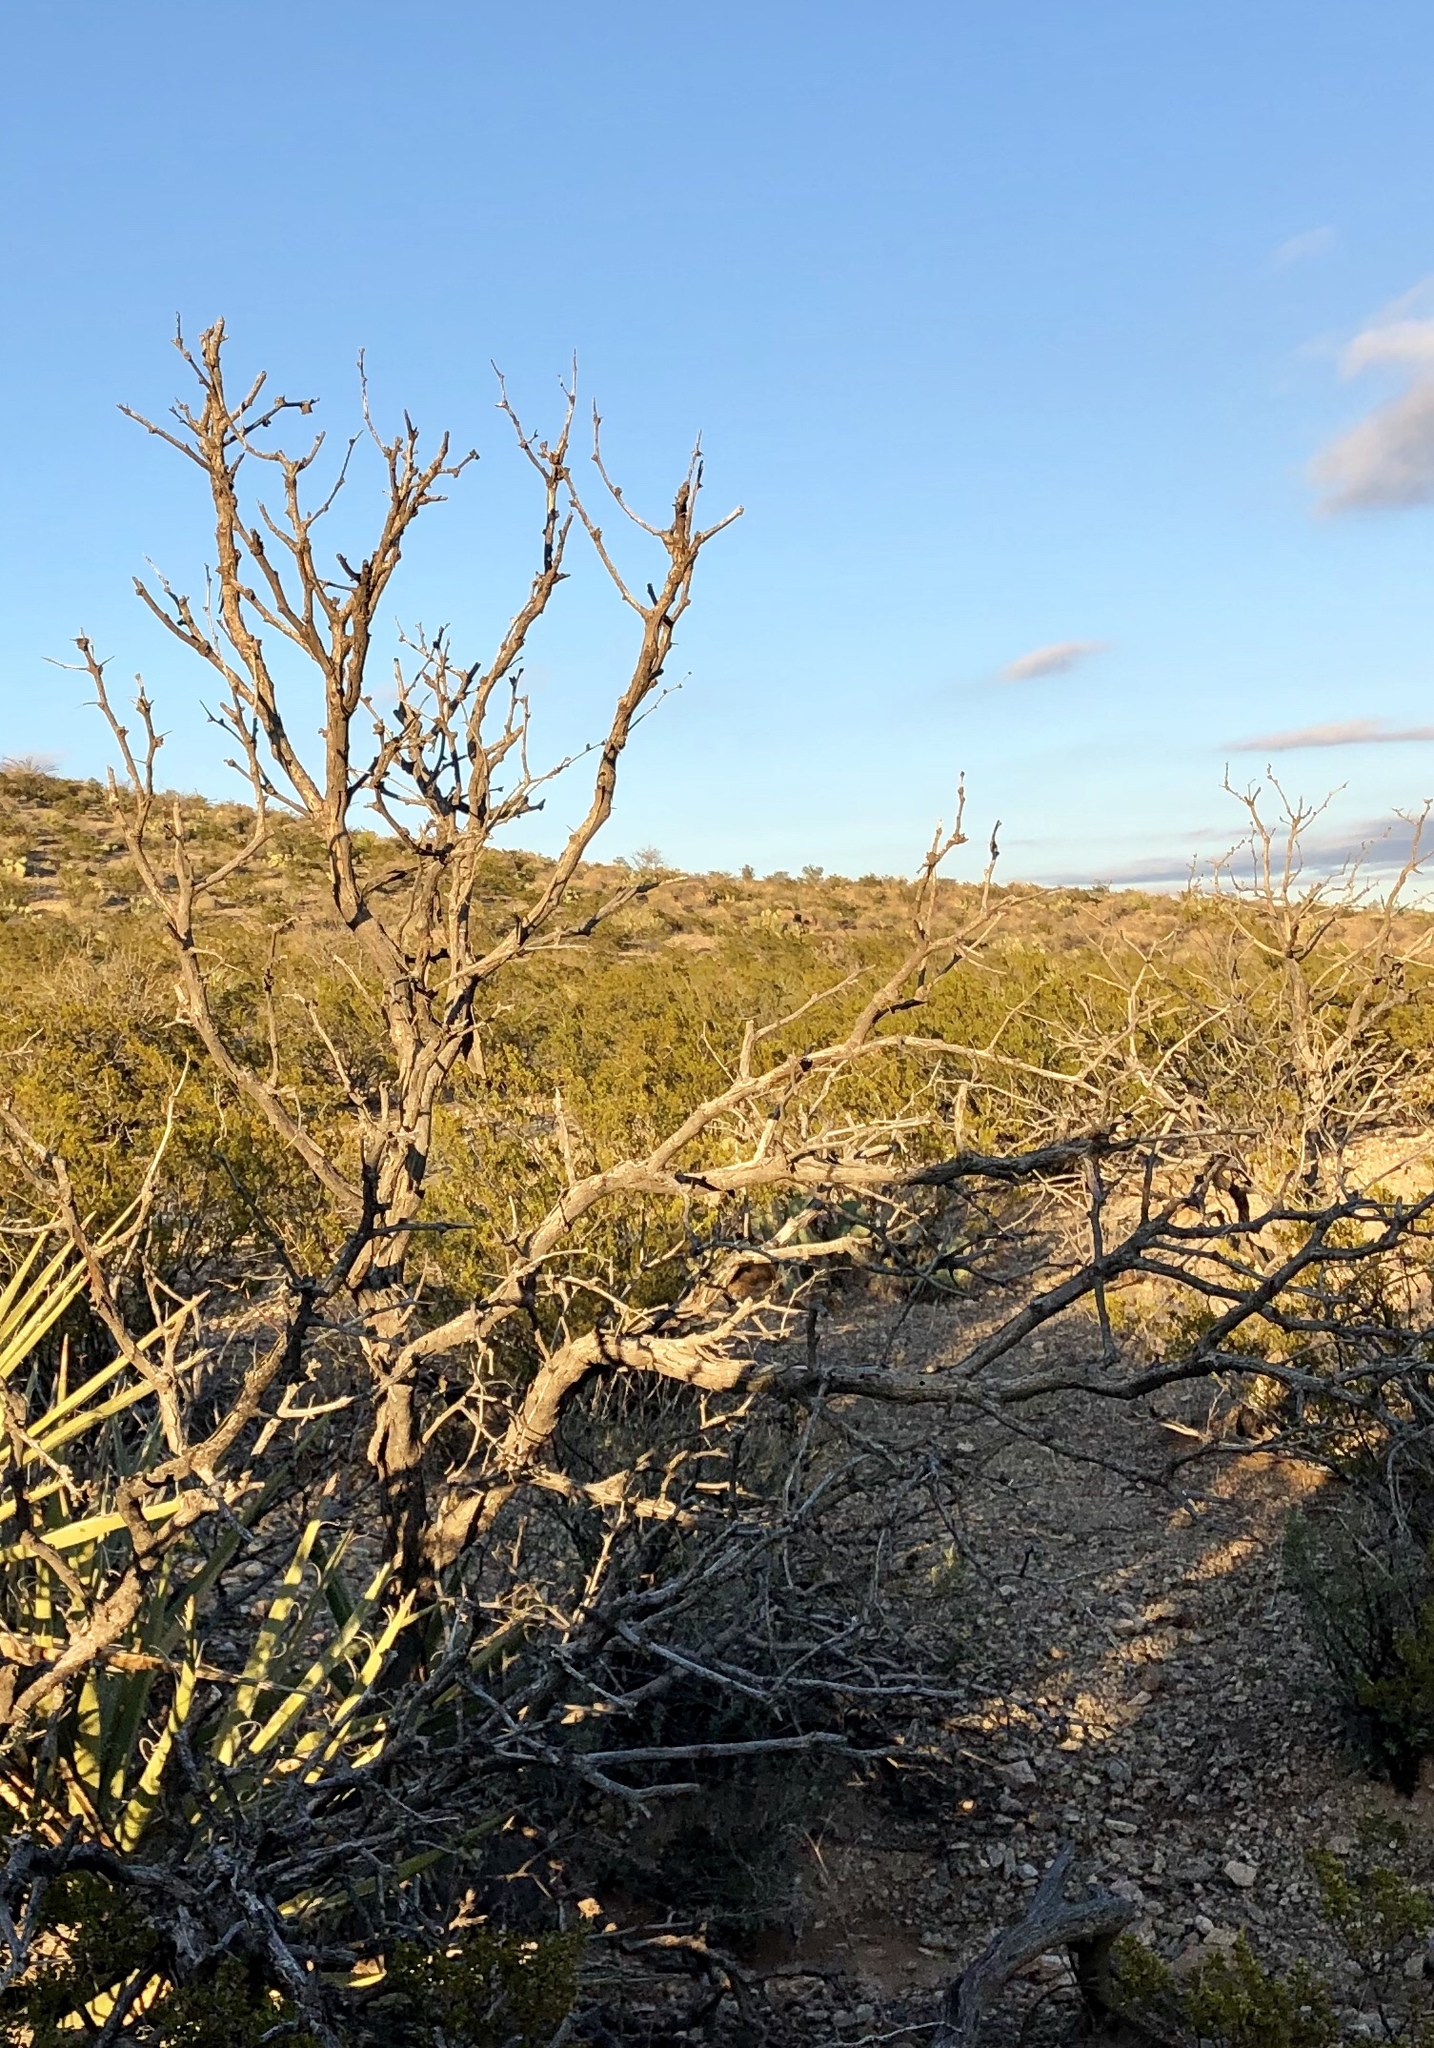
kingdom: Plantae
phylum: Tracheophyta
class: Magnoliopsida
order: Fabales
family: Fabaceae
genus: Prosopis
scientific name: Prosopis glandulosa
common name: Honey mesquite
